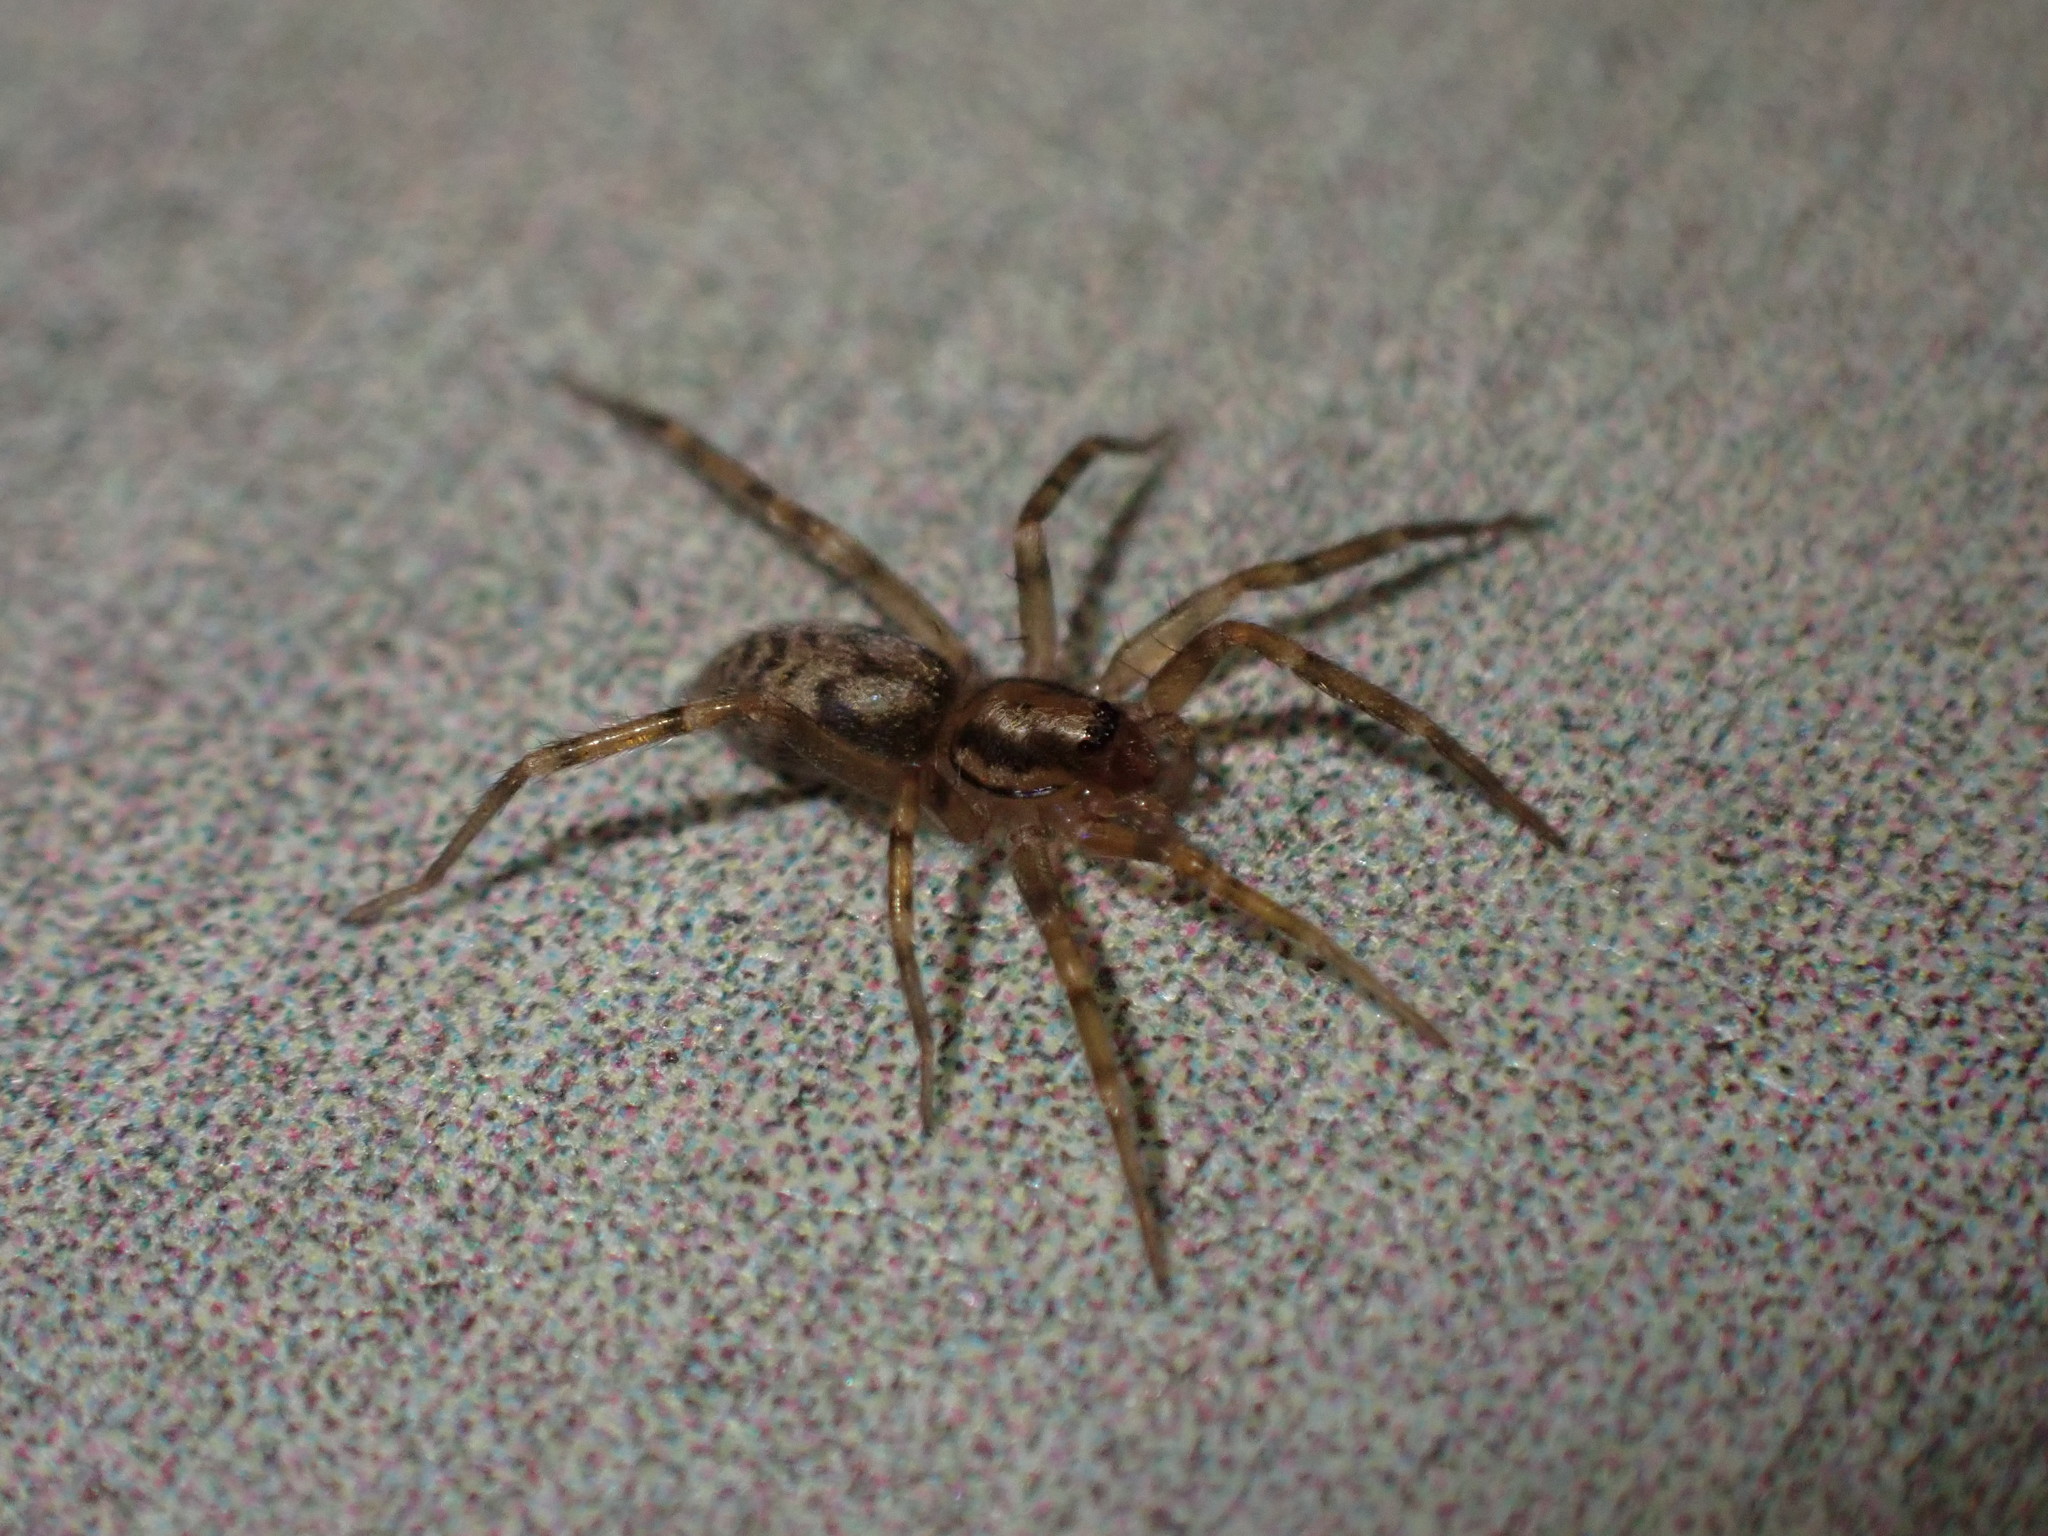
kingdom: Animalia
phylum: Arthropoda
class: Arachnida
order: Araneae
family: Liocranidae
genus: Liocranum
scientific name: Liocranum rupicola
